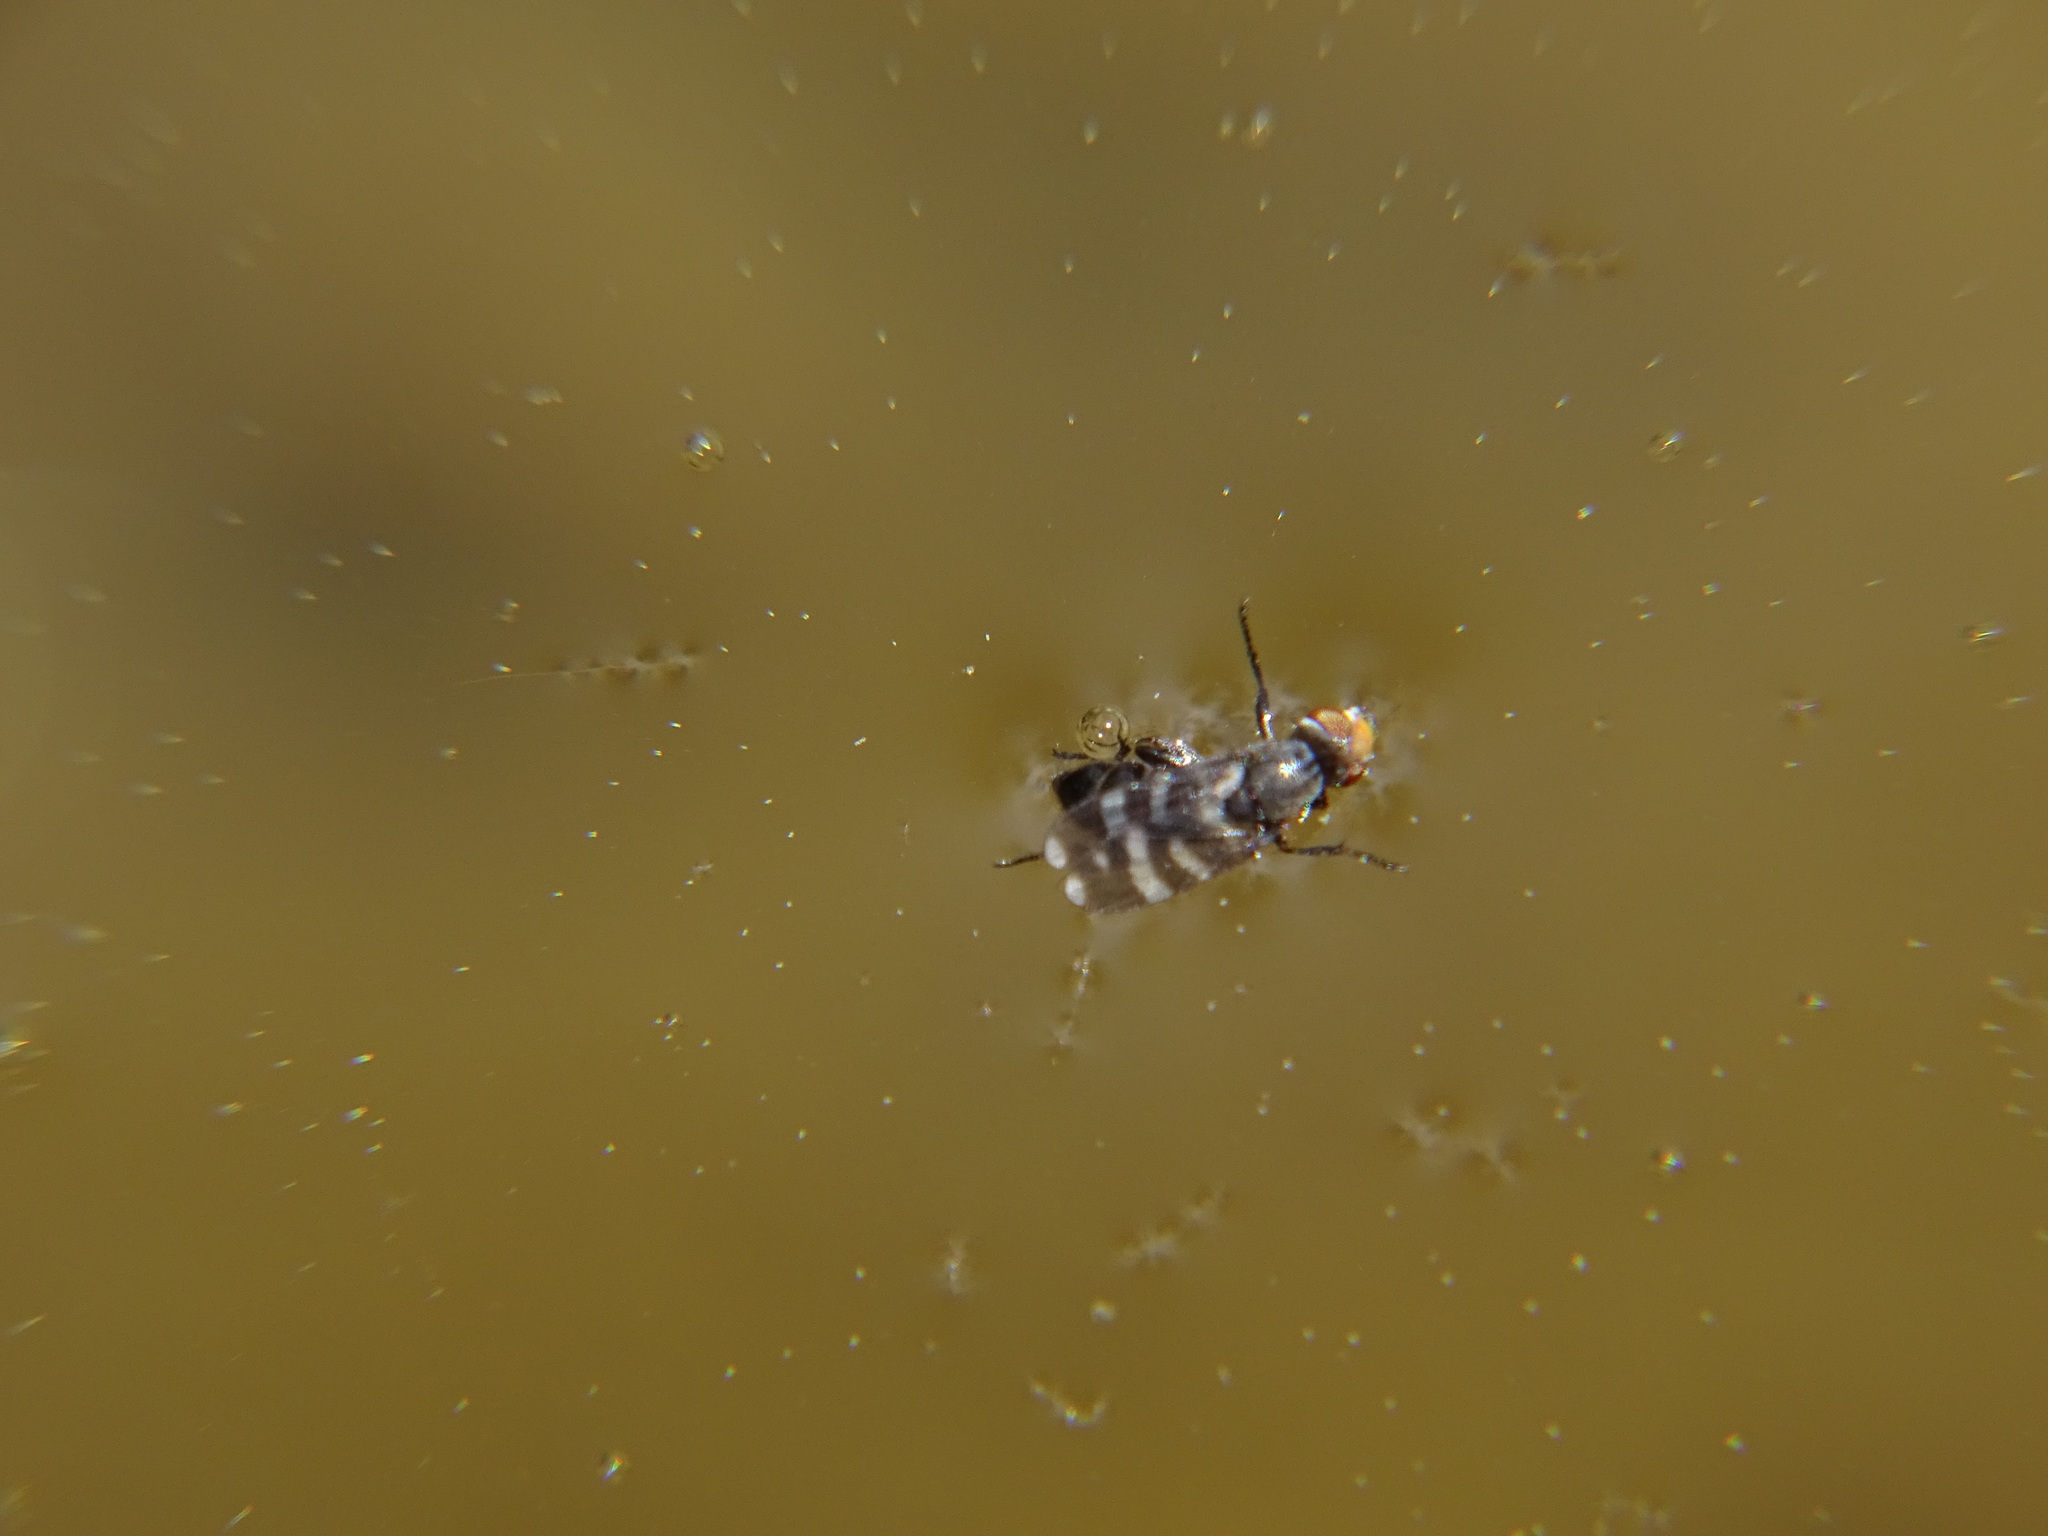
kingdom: Animalia
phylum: Arthropoda
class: Insecta
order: Diptera
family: Ulidiidae
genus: Herina
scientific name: Herina frondescentiae
